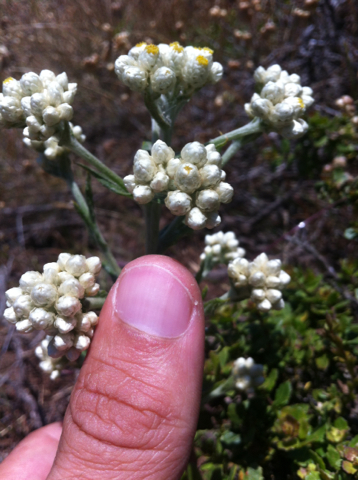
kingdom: Plantae
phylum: Tracheophyta
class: Magnoliopsida
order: Asterales
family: Asteraceae
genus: Pseudognaphalium
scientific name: Pseudognaphalium californicum
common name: California rabbit-tobacco
